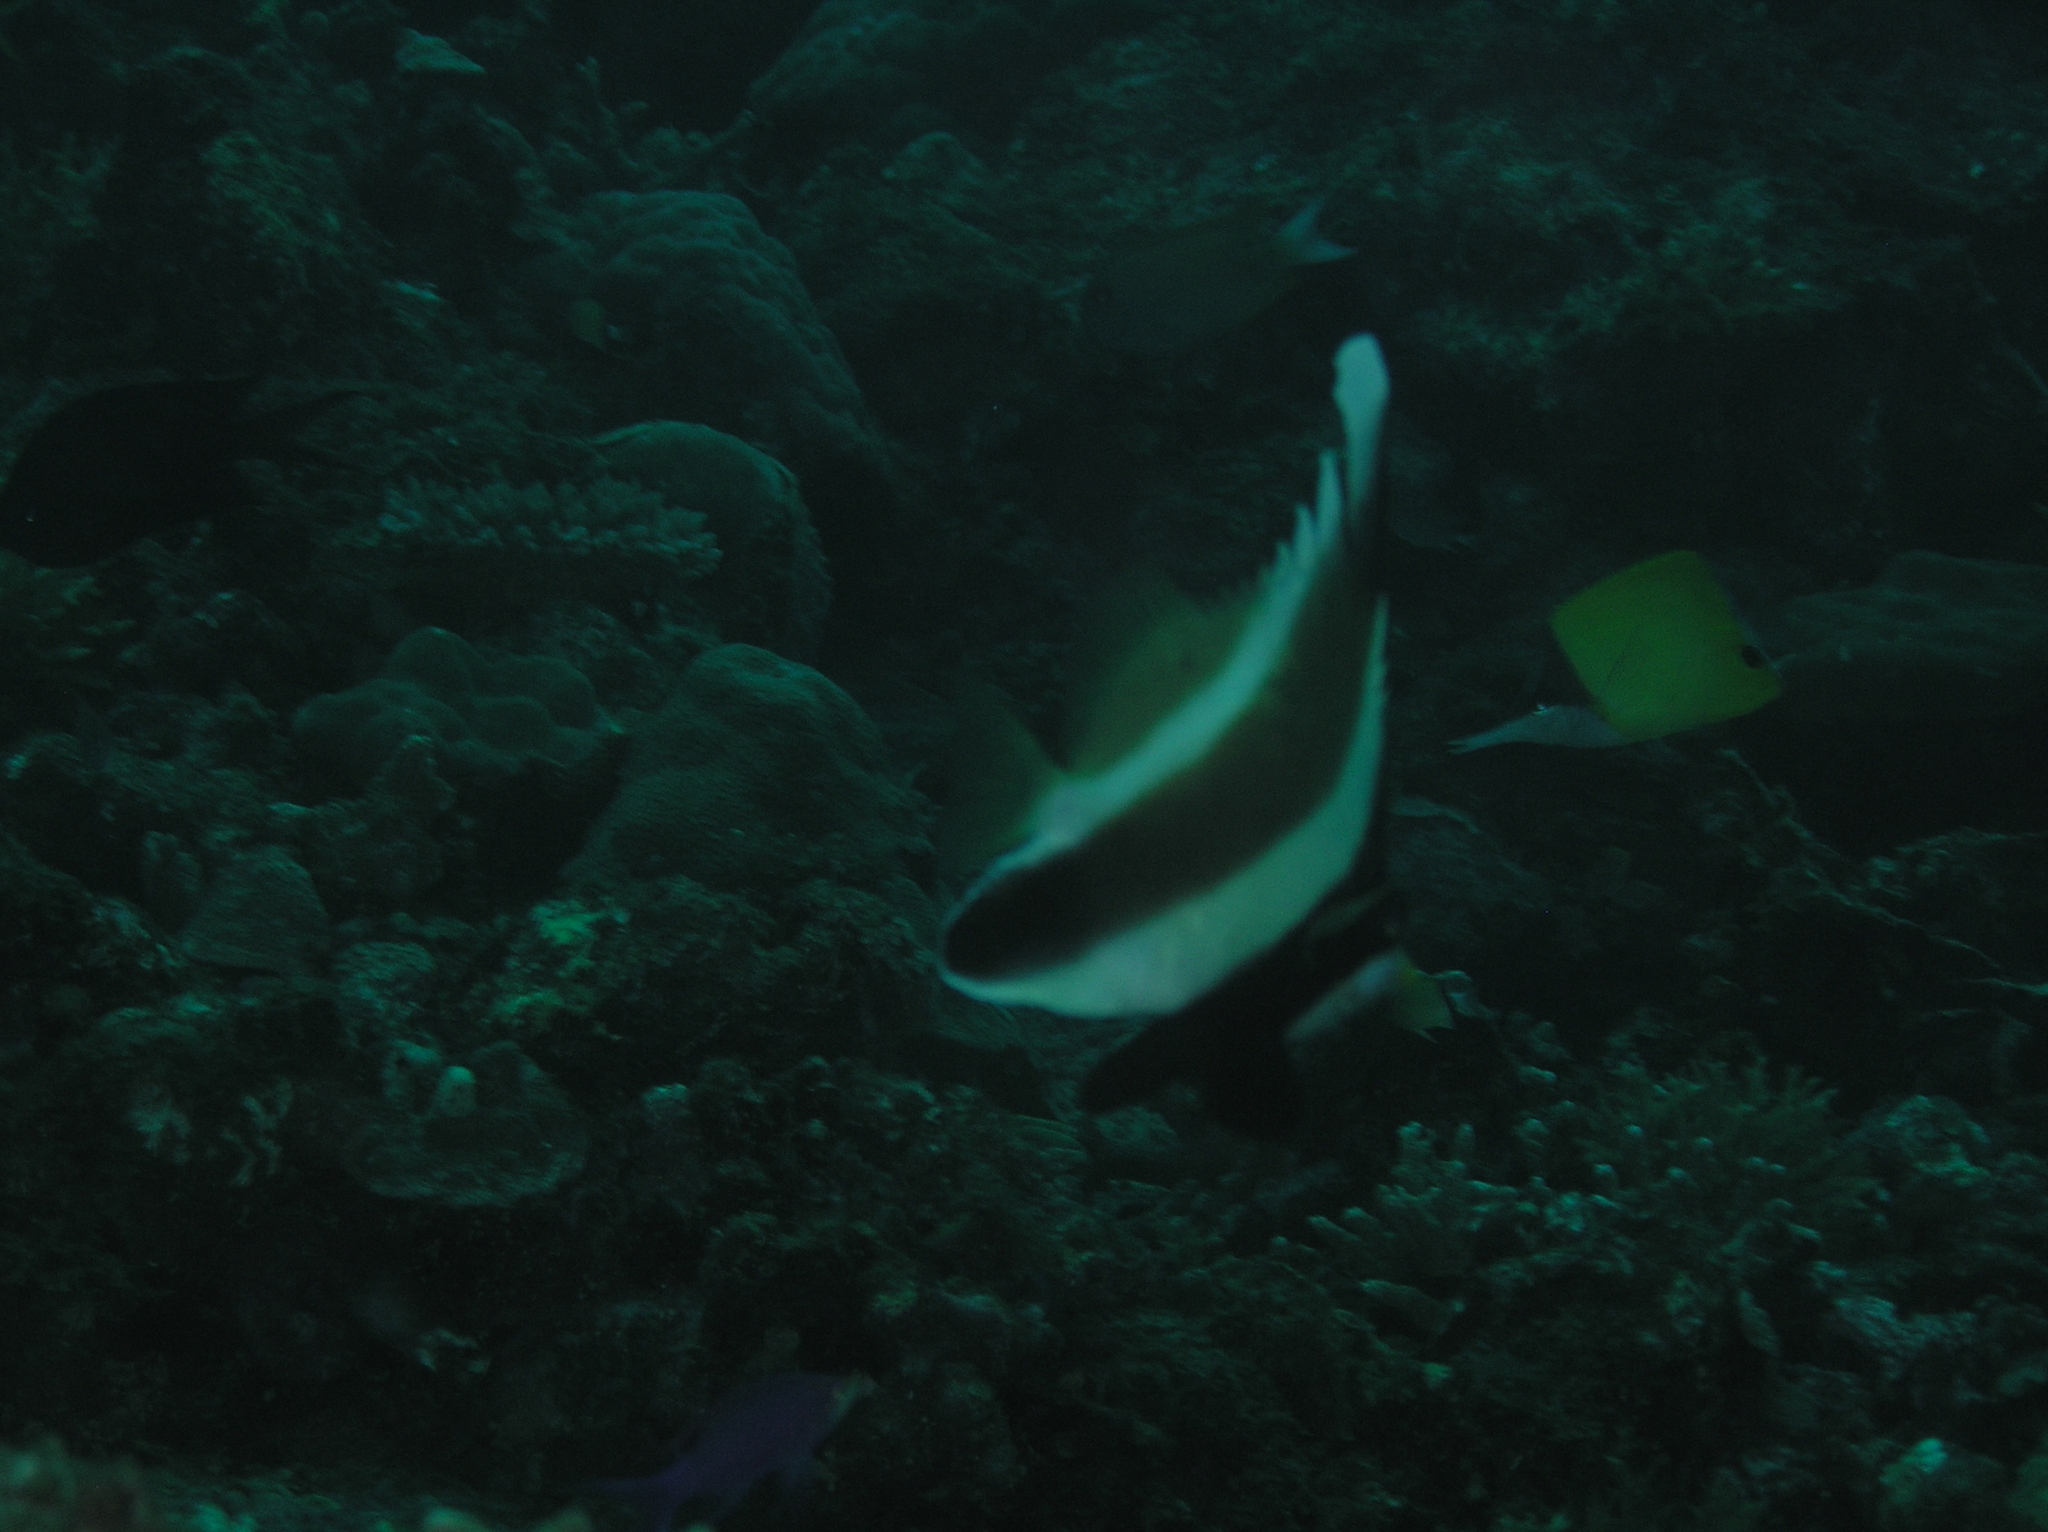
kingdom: Animalia
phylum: Chordata
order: Perciformes
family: Chaetodontidae
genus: Heniochus
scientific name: Heniochus chrysostomus
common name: Horned bannerfish
